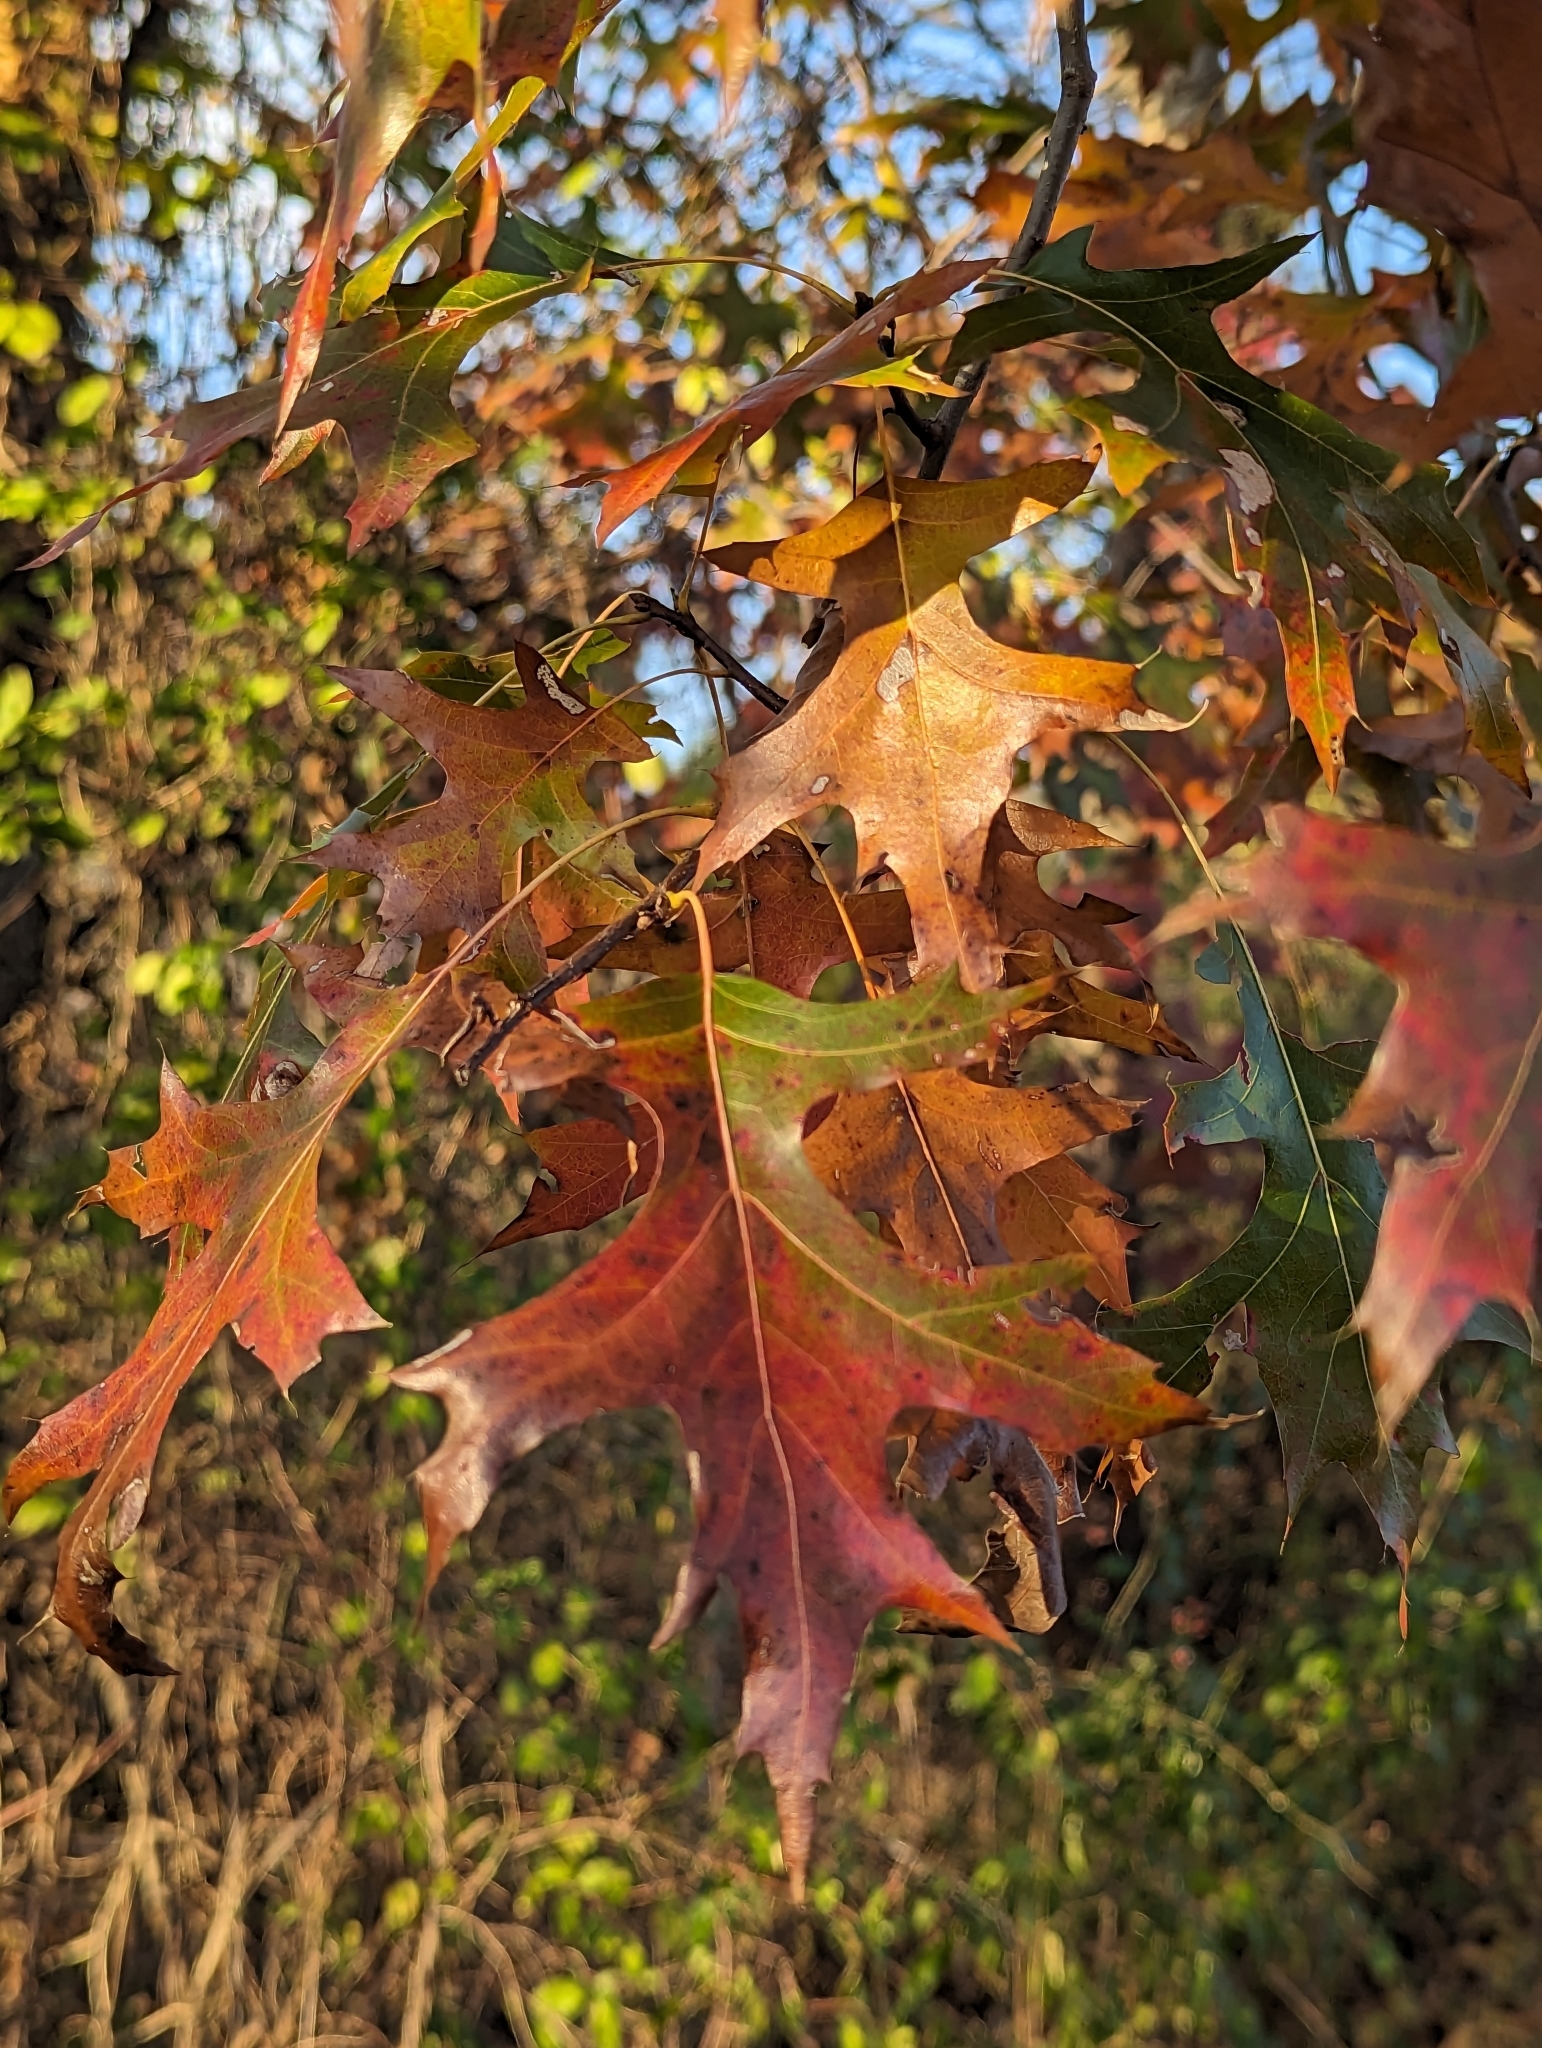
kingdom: Plantae
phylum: Tracheophyta
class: Magnoliopsida
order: Fagales
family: Fagaceae
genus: Quercus
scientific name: Quercus palustris
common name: Pin oak
